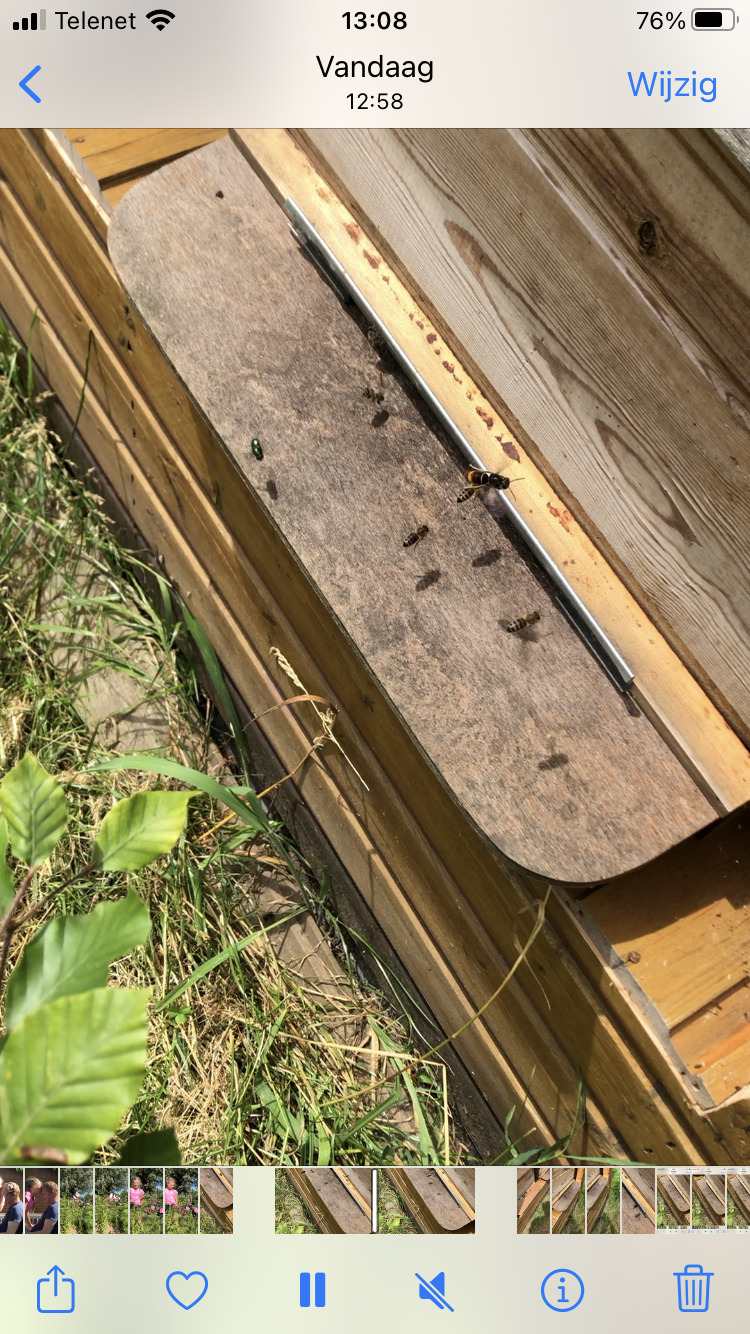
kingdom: Animalia
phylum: Arthropoda
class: Insecta
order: Hymenoptera
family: Vespidae
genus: Vespa
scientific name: Vespa velutina
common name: Asian hornet
